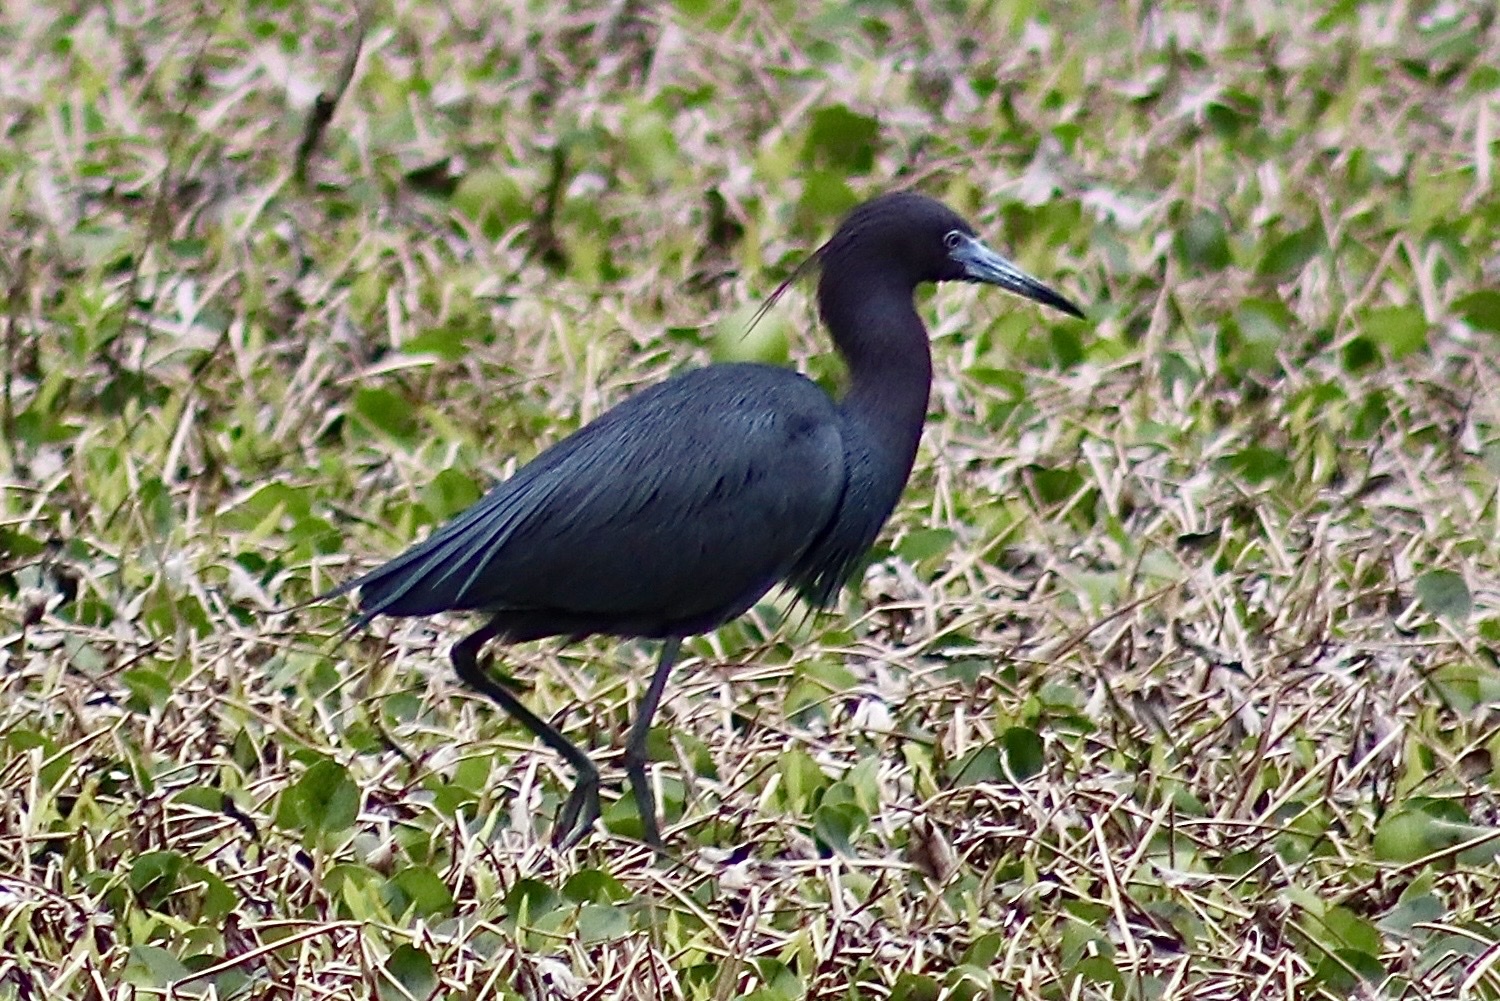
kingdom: Animalia
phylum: Chordata
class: Aves
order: Pelecaniformes
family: Ardeidae
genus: Egretta
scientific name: Egretta caerulea
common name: Little blue heron
